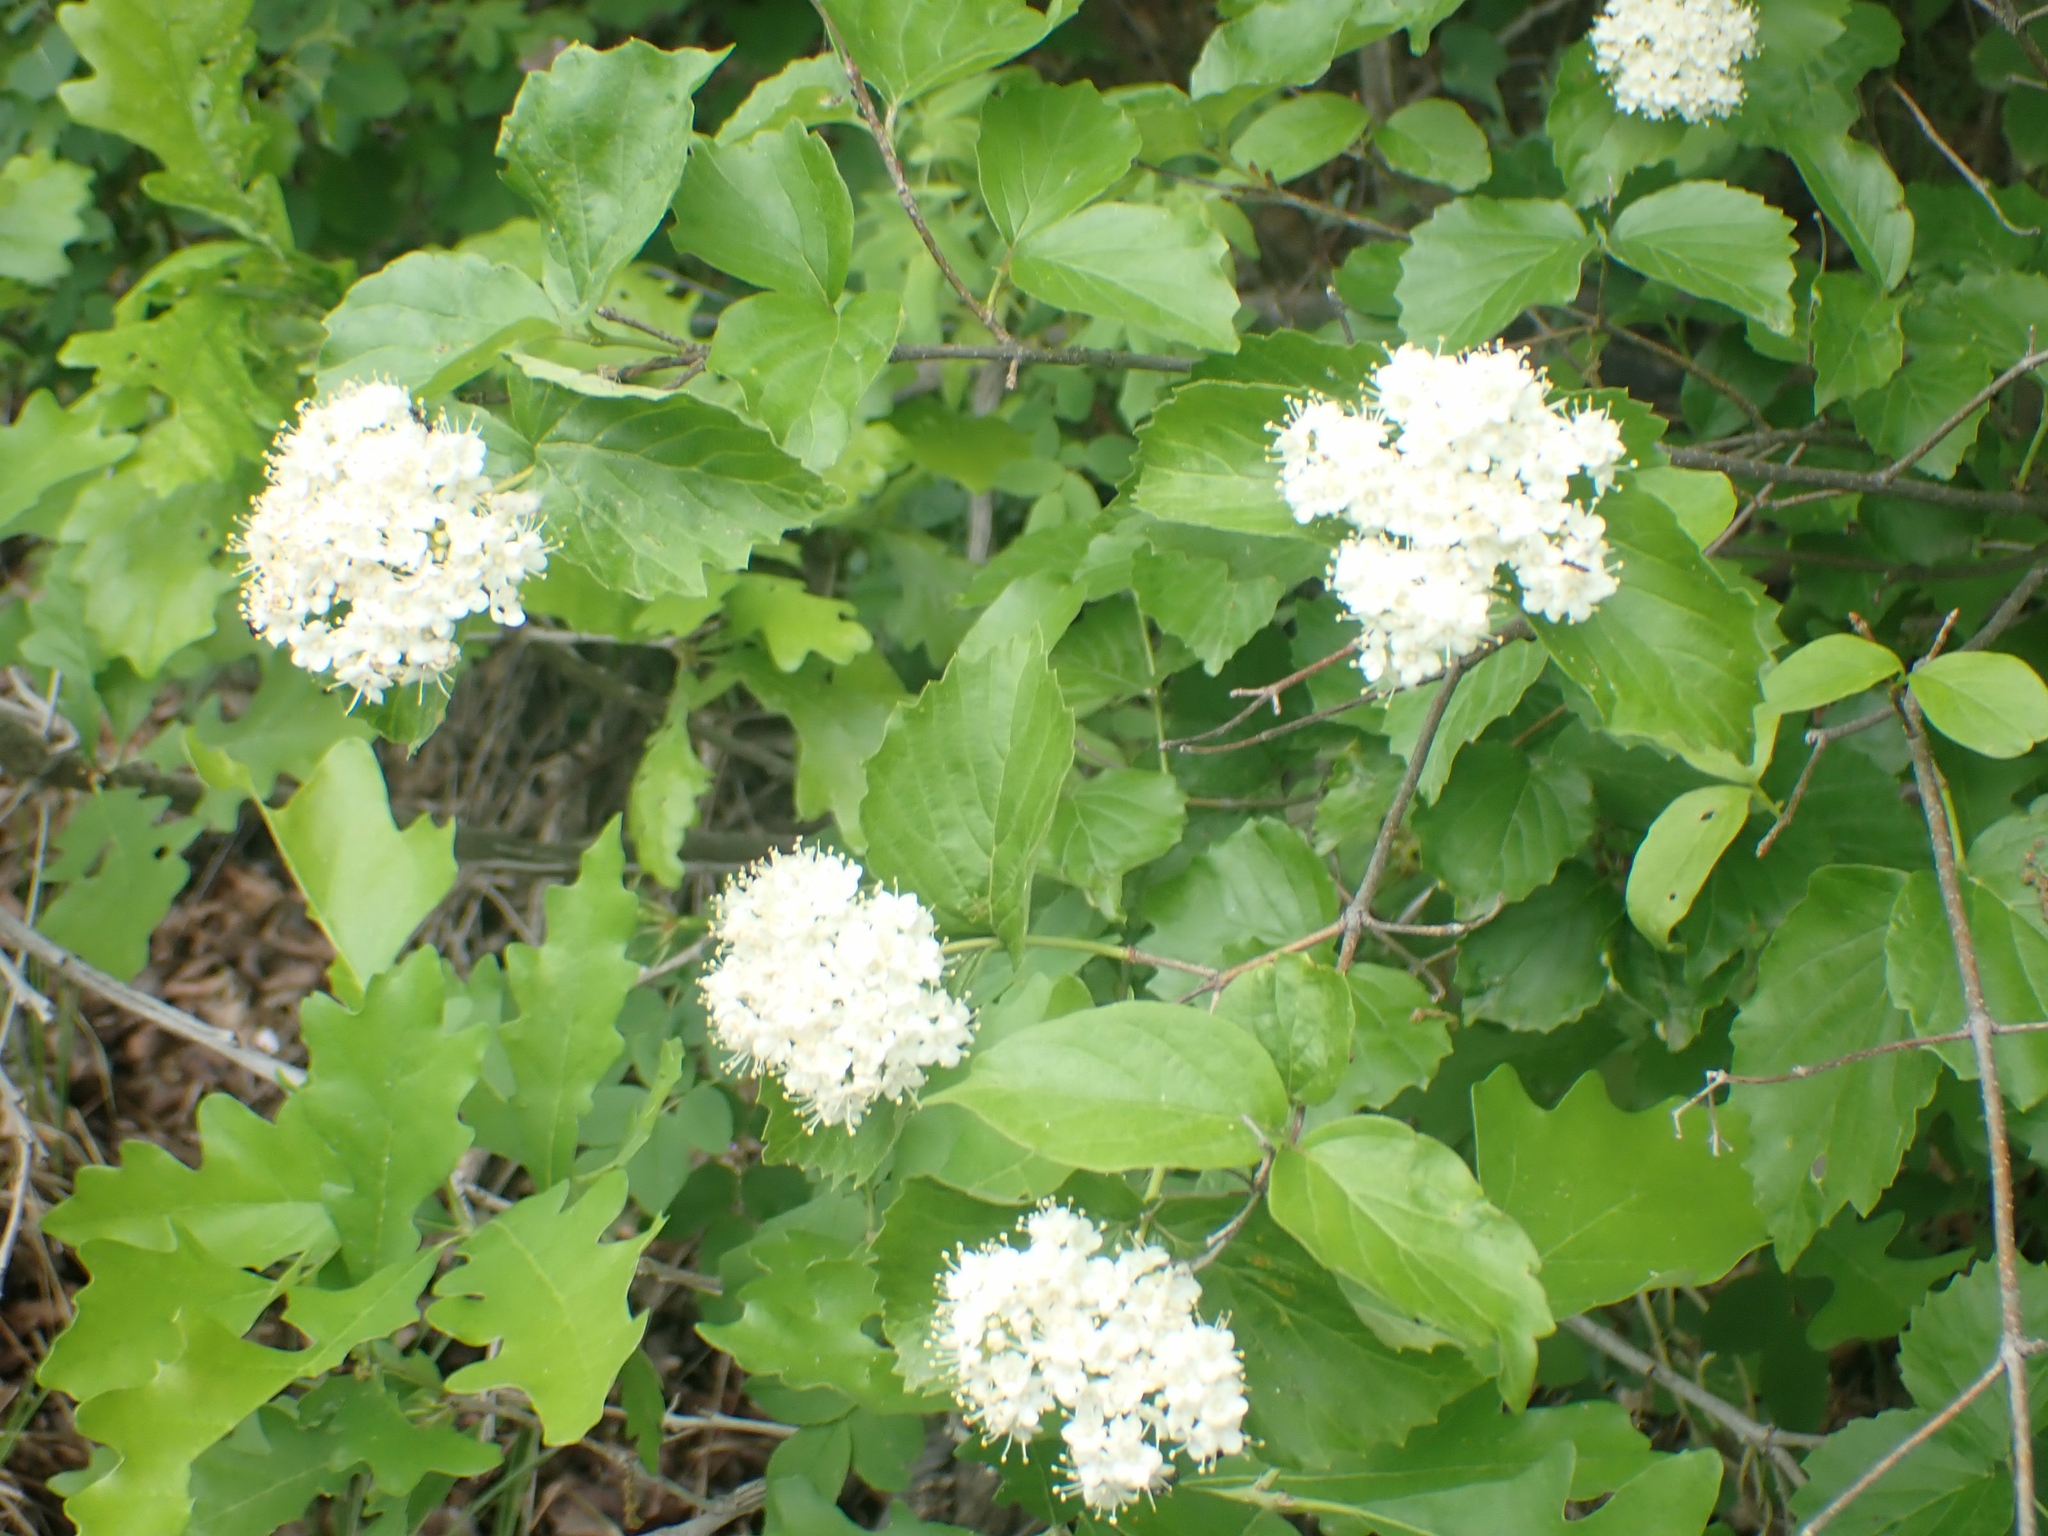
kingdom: Plantae
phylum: Tracheophyta
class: Magnoliopsida
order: Dipsacales
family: Viburnaceae
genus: Viburnum
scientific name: Viburnum rafinesqueanum
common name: Downy arrow-wood
